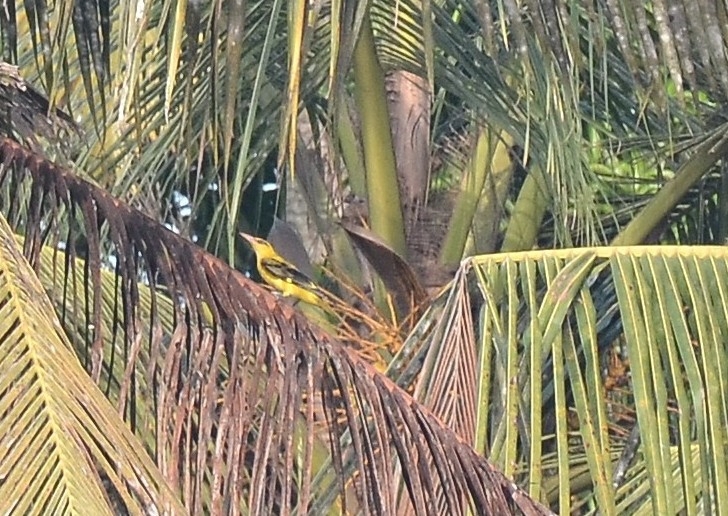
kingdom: Animalia
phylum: Chordata
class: Aves
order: Passeriformes
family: Oriolidae
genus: Oriolus
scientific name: Oriolus kundoo
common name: Indian golden oriole
